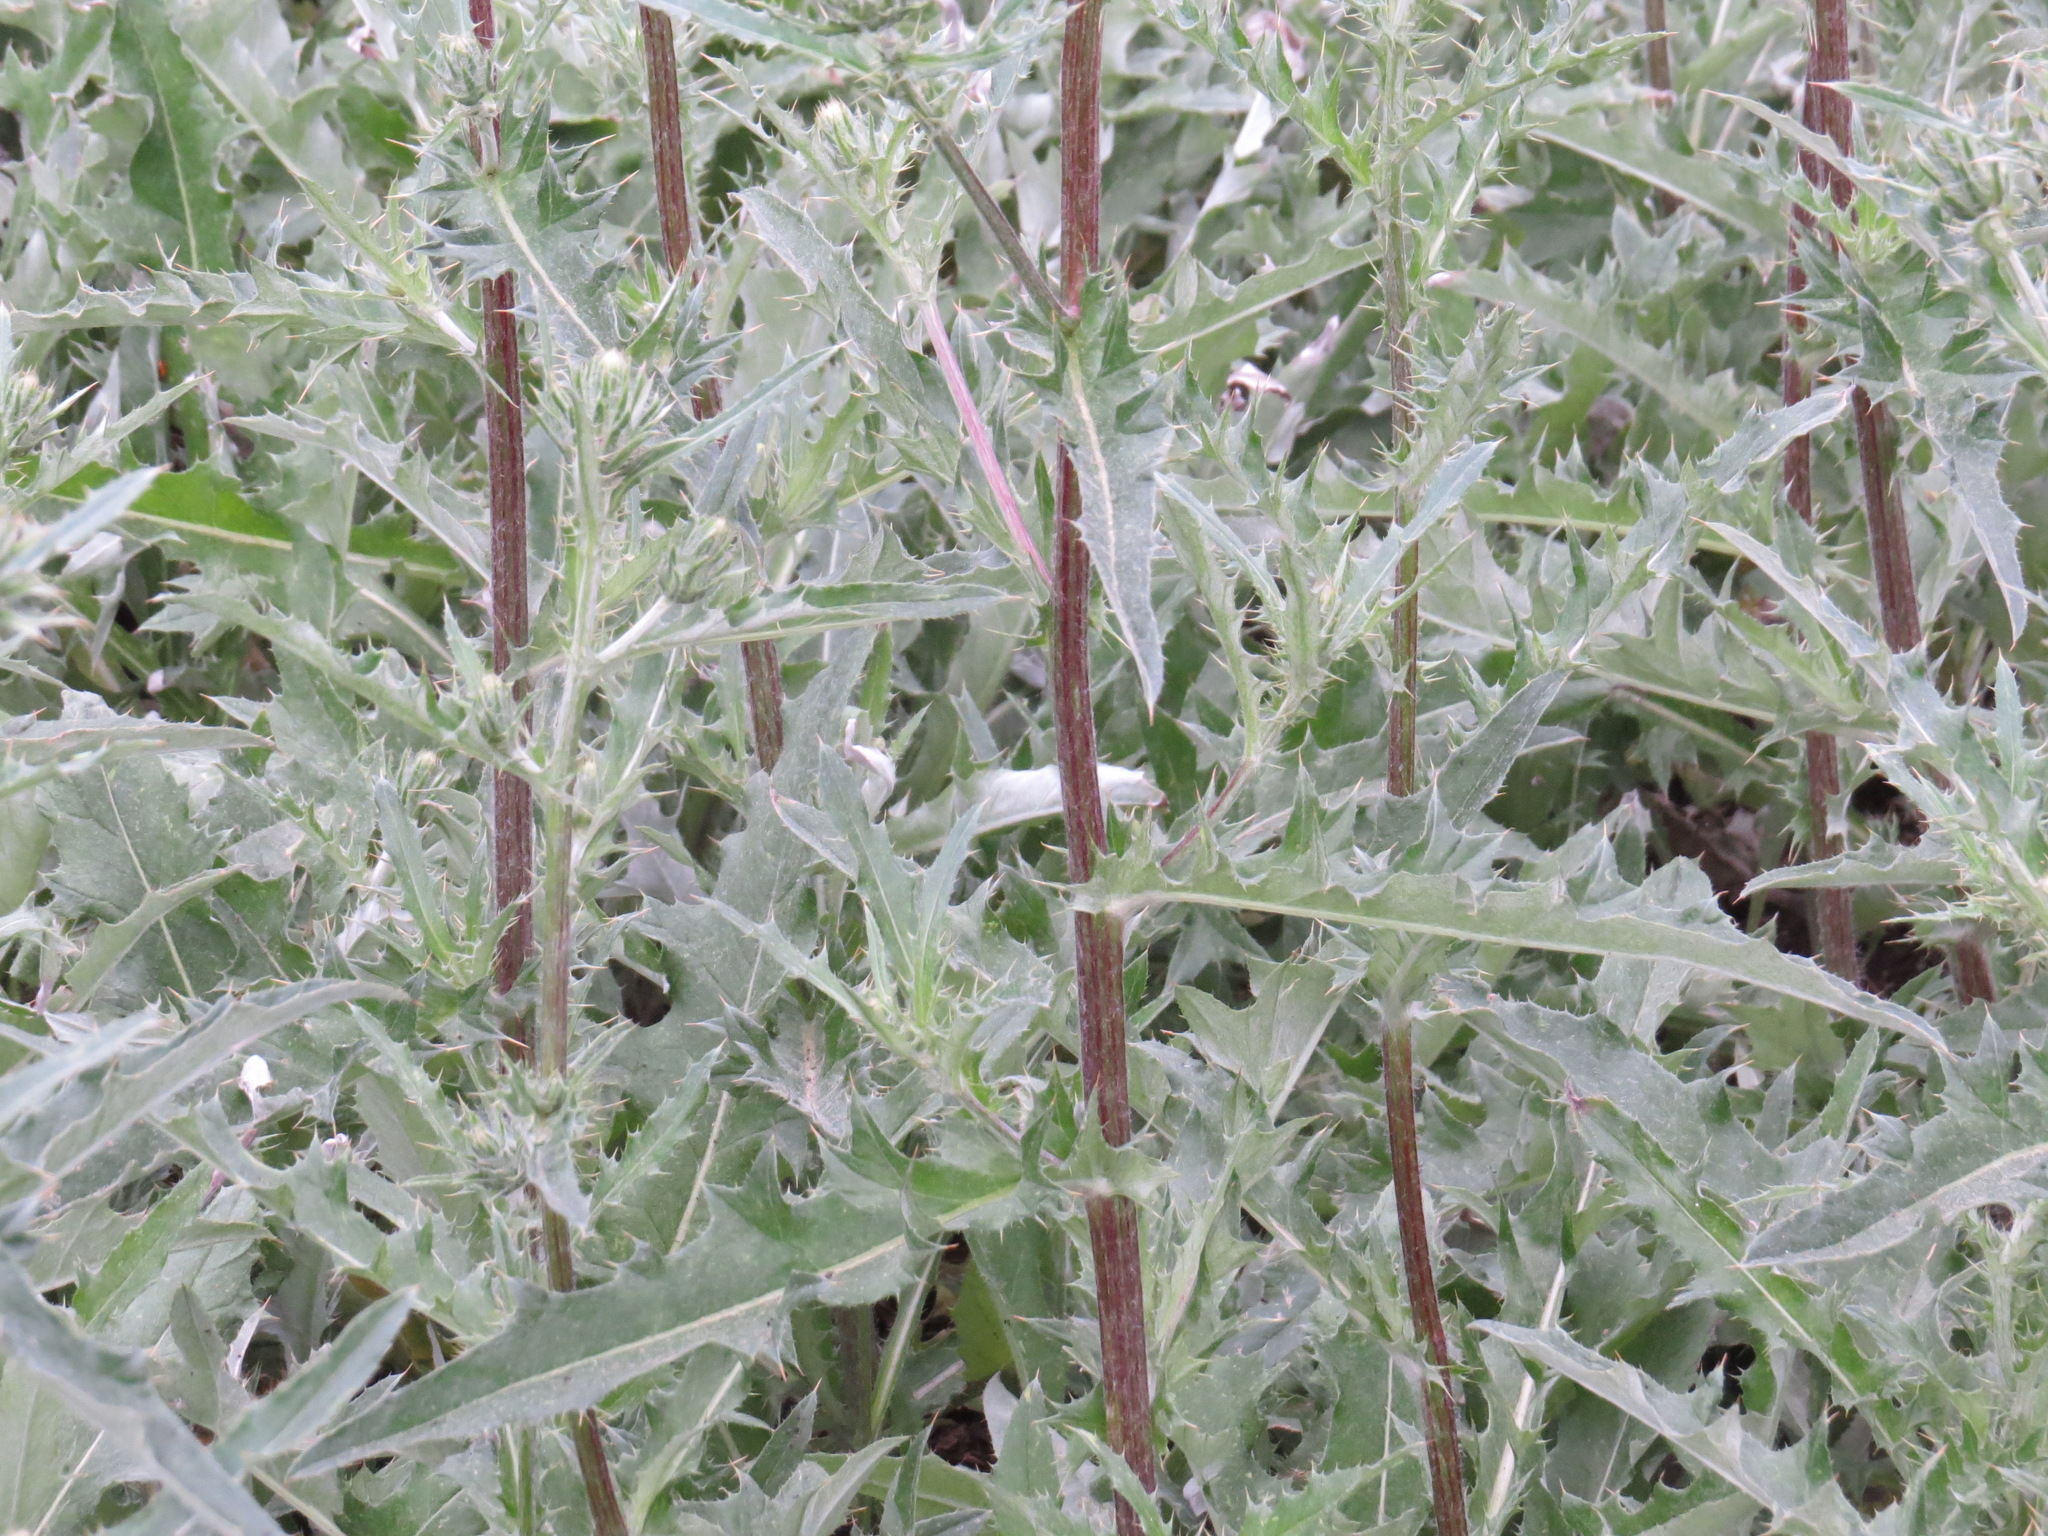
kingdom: Plantae
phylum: Tracheophyta
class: Magnoliopsida
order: Asterales
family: Asteraceae
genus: Cirsium
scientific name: Cirsium andersonii
